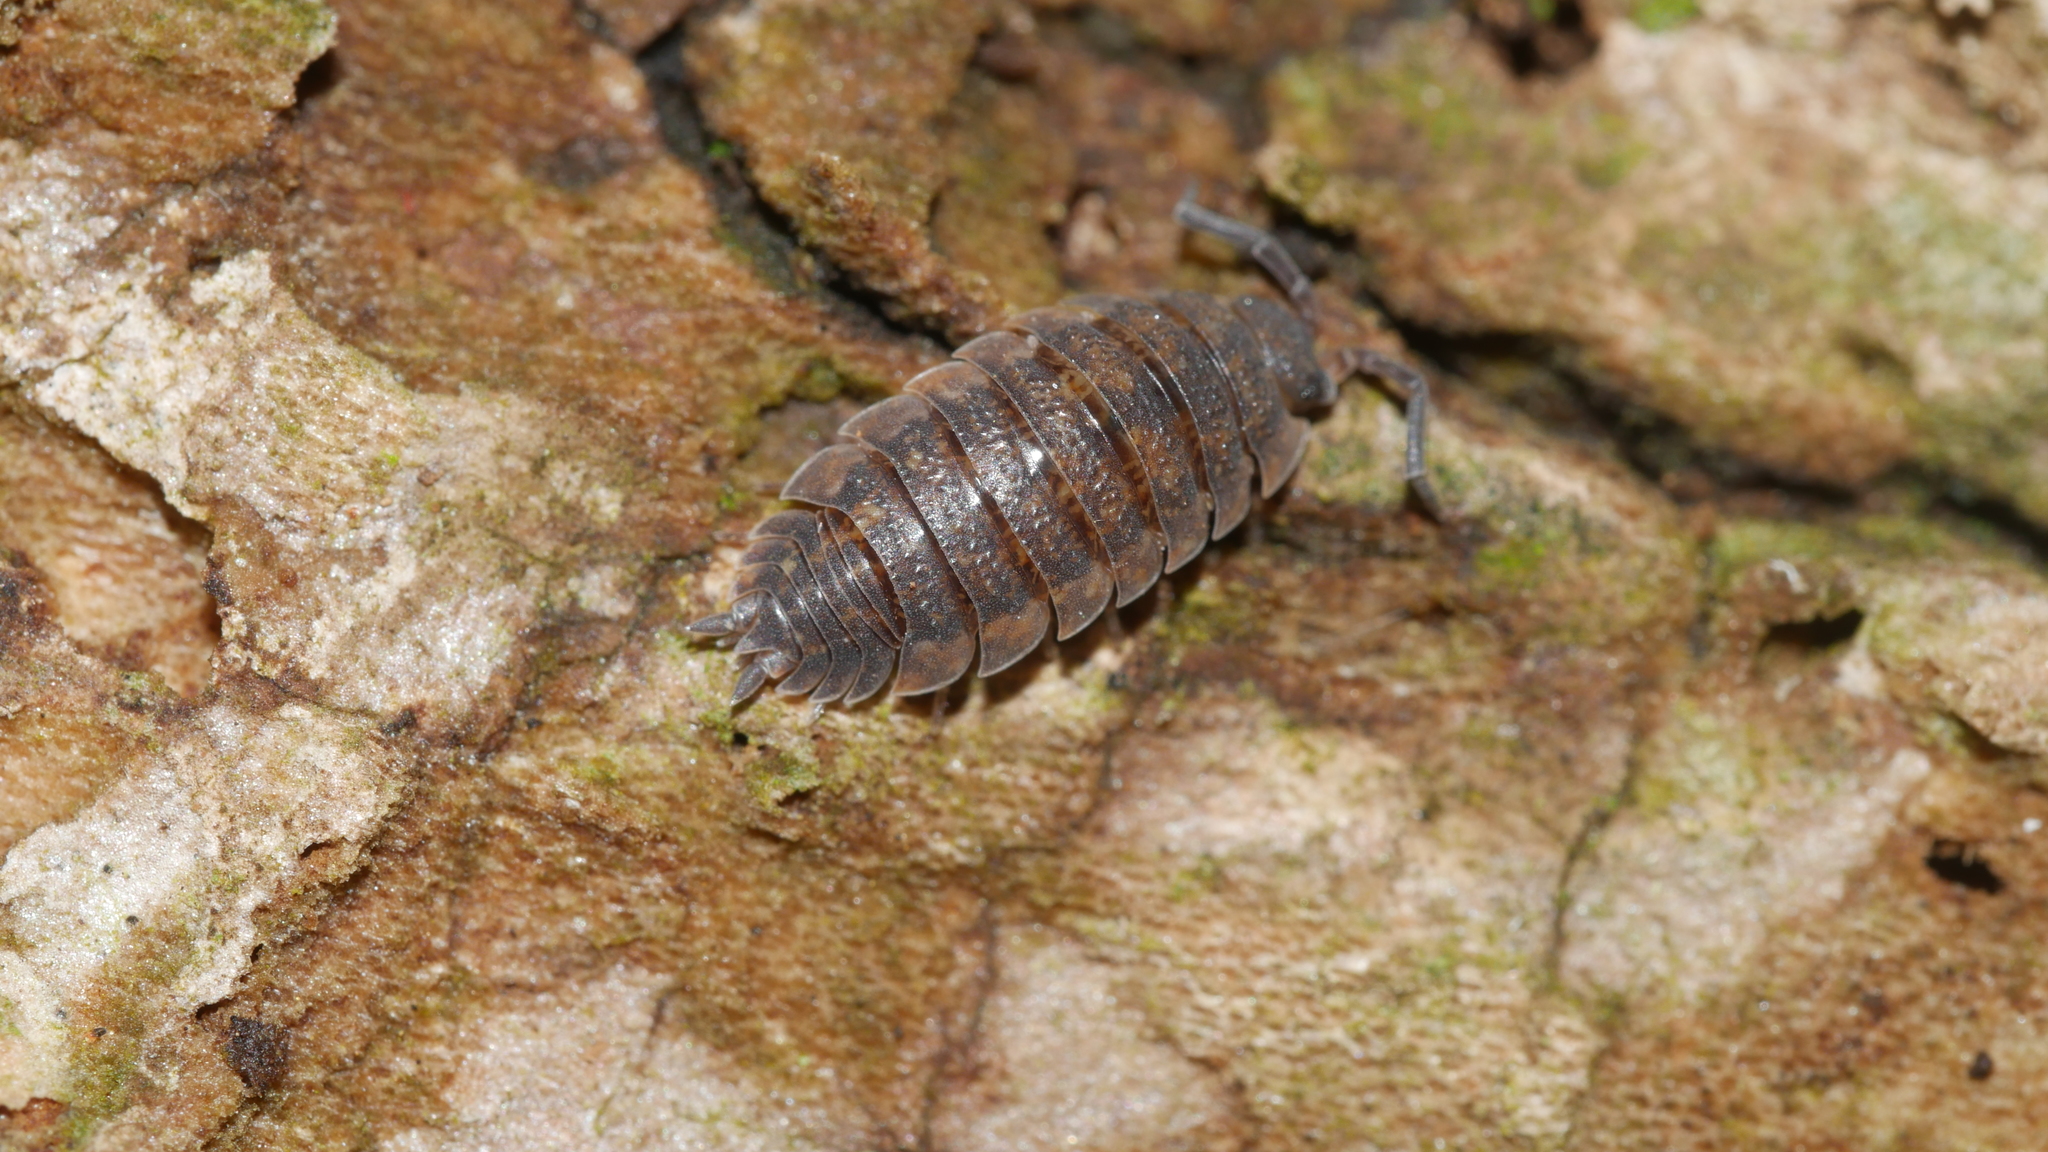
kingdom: Animalia
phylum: Arthropoda
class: Malacostraca
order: Isopoda
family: Porcellionidae
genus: Porcellio
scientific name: Porcellio scaber
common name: Common rough woodlouse
